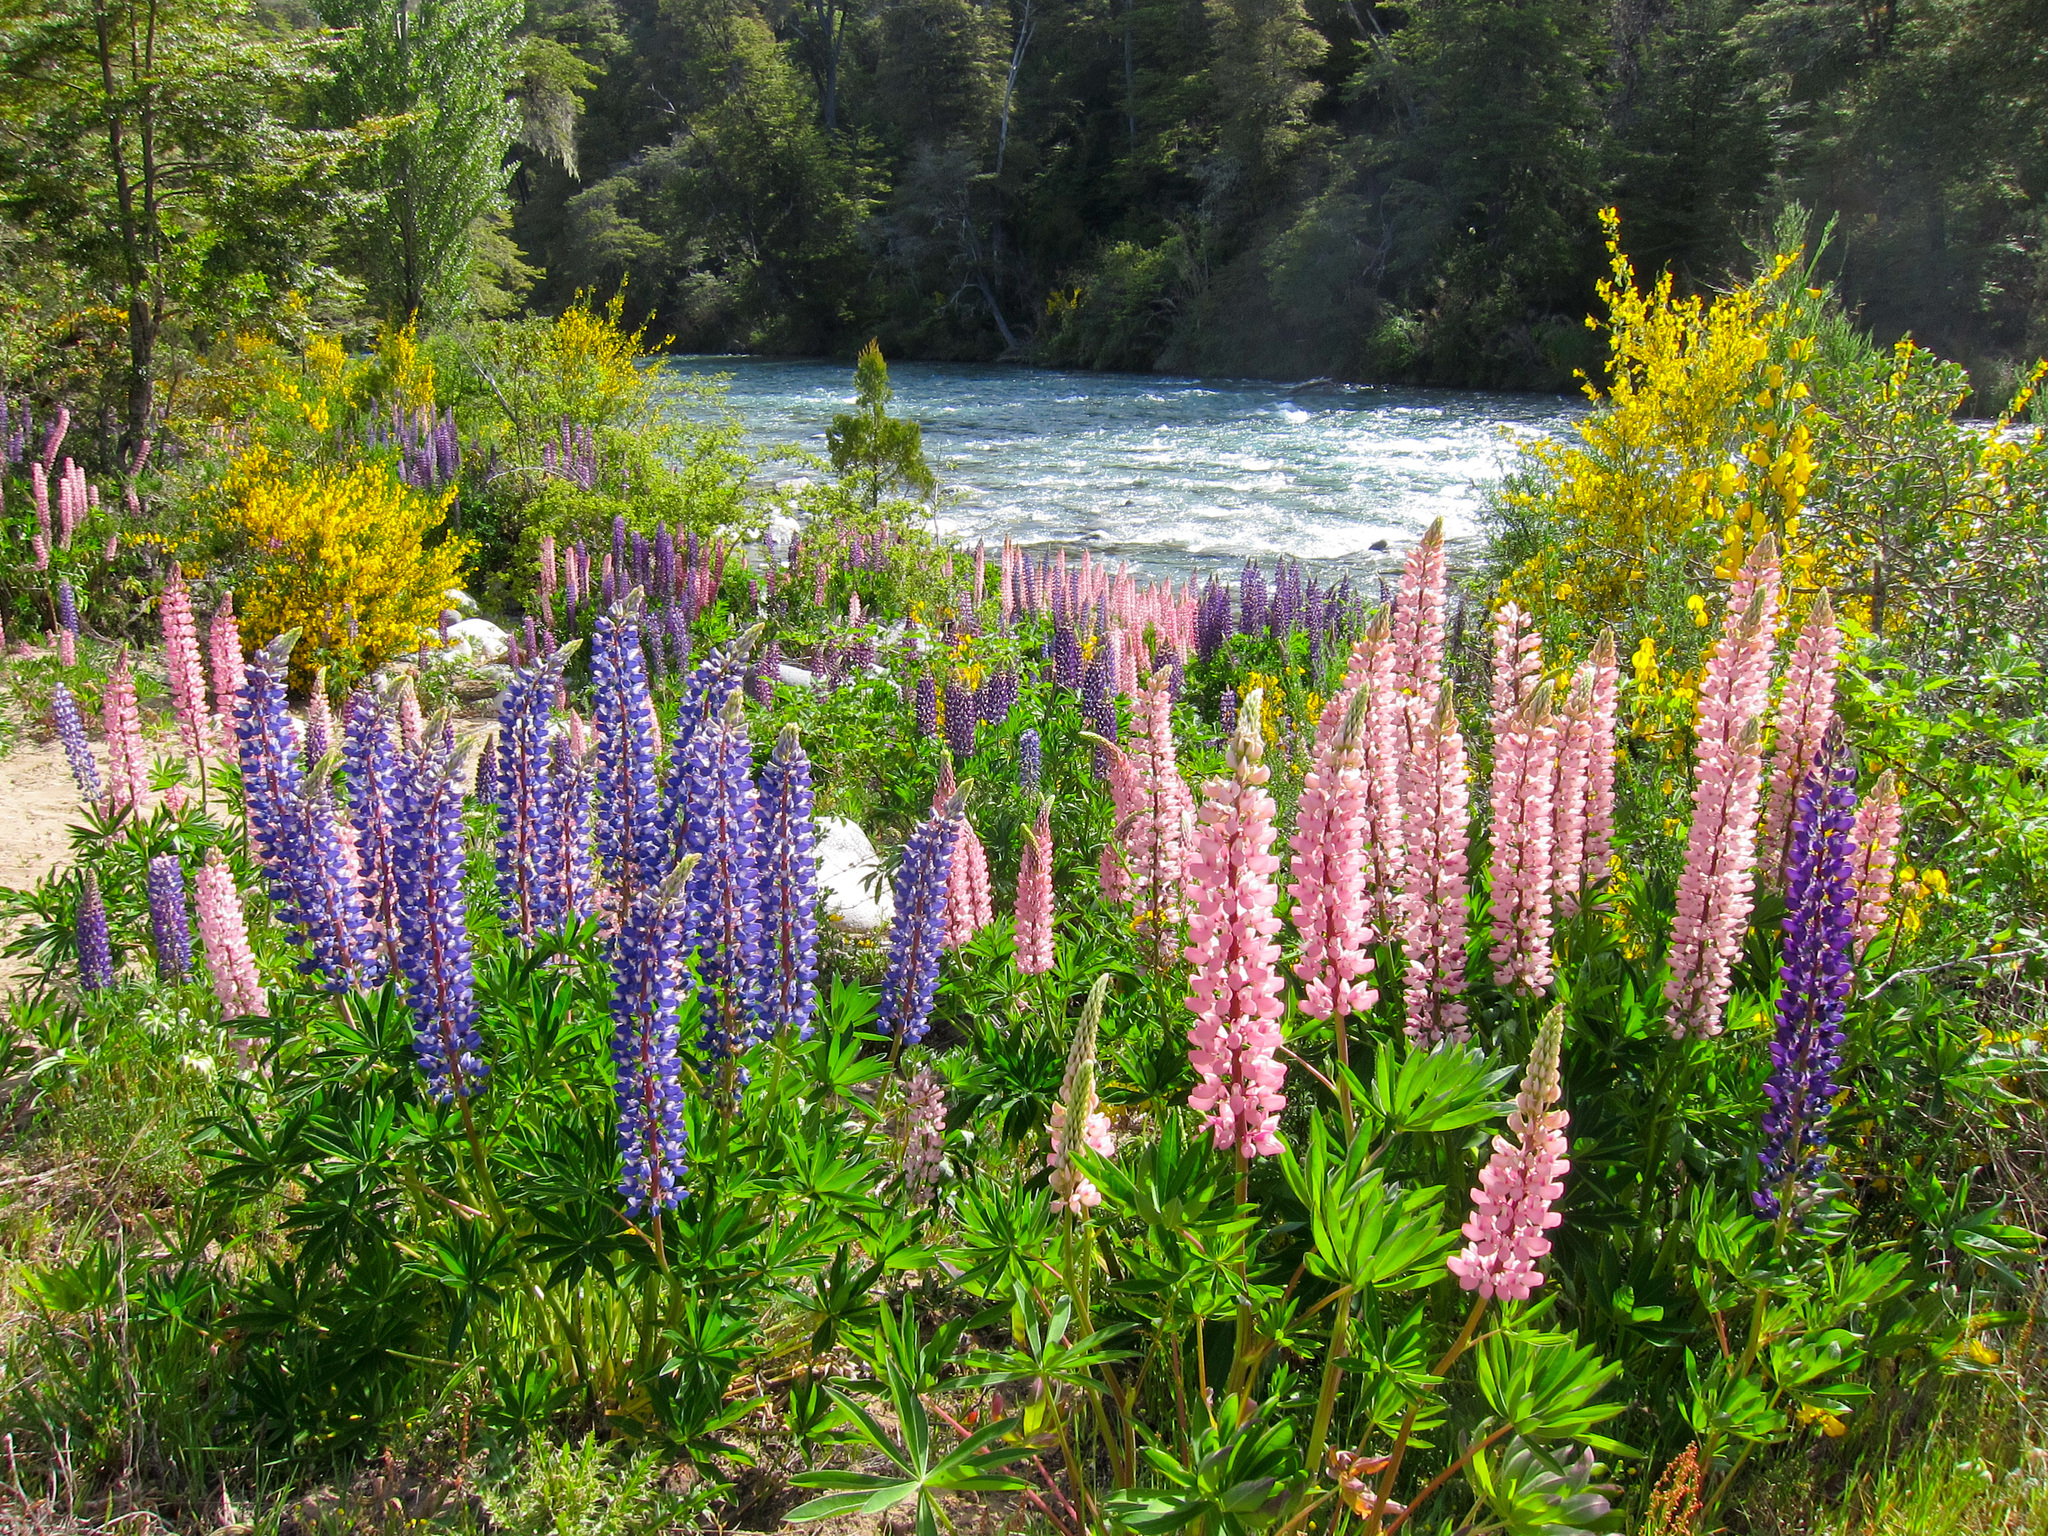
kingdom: Plantae
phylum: Tracheophyta
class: Magnoliopsida
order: Fabales
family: Fabaceae
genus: Lupinus
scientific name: Lupinus polyphyllus
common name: Garden lupin
